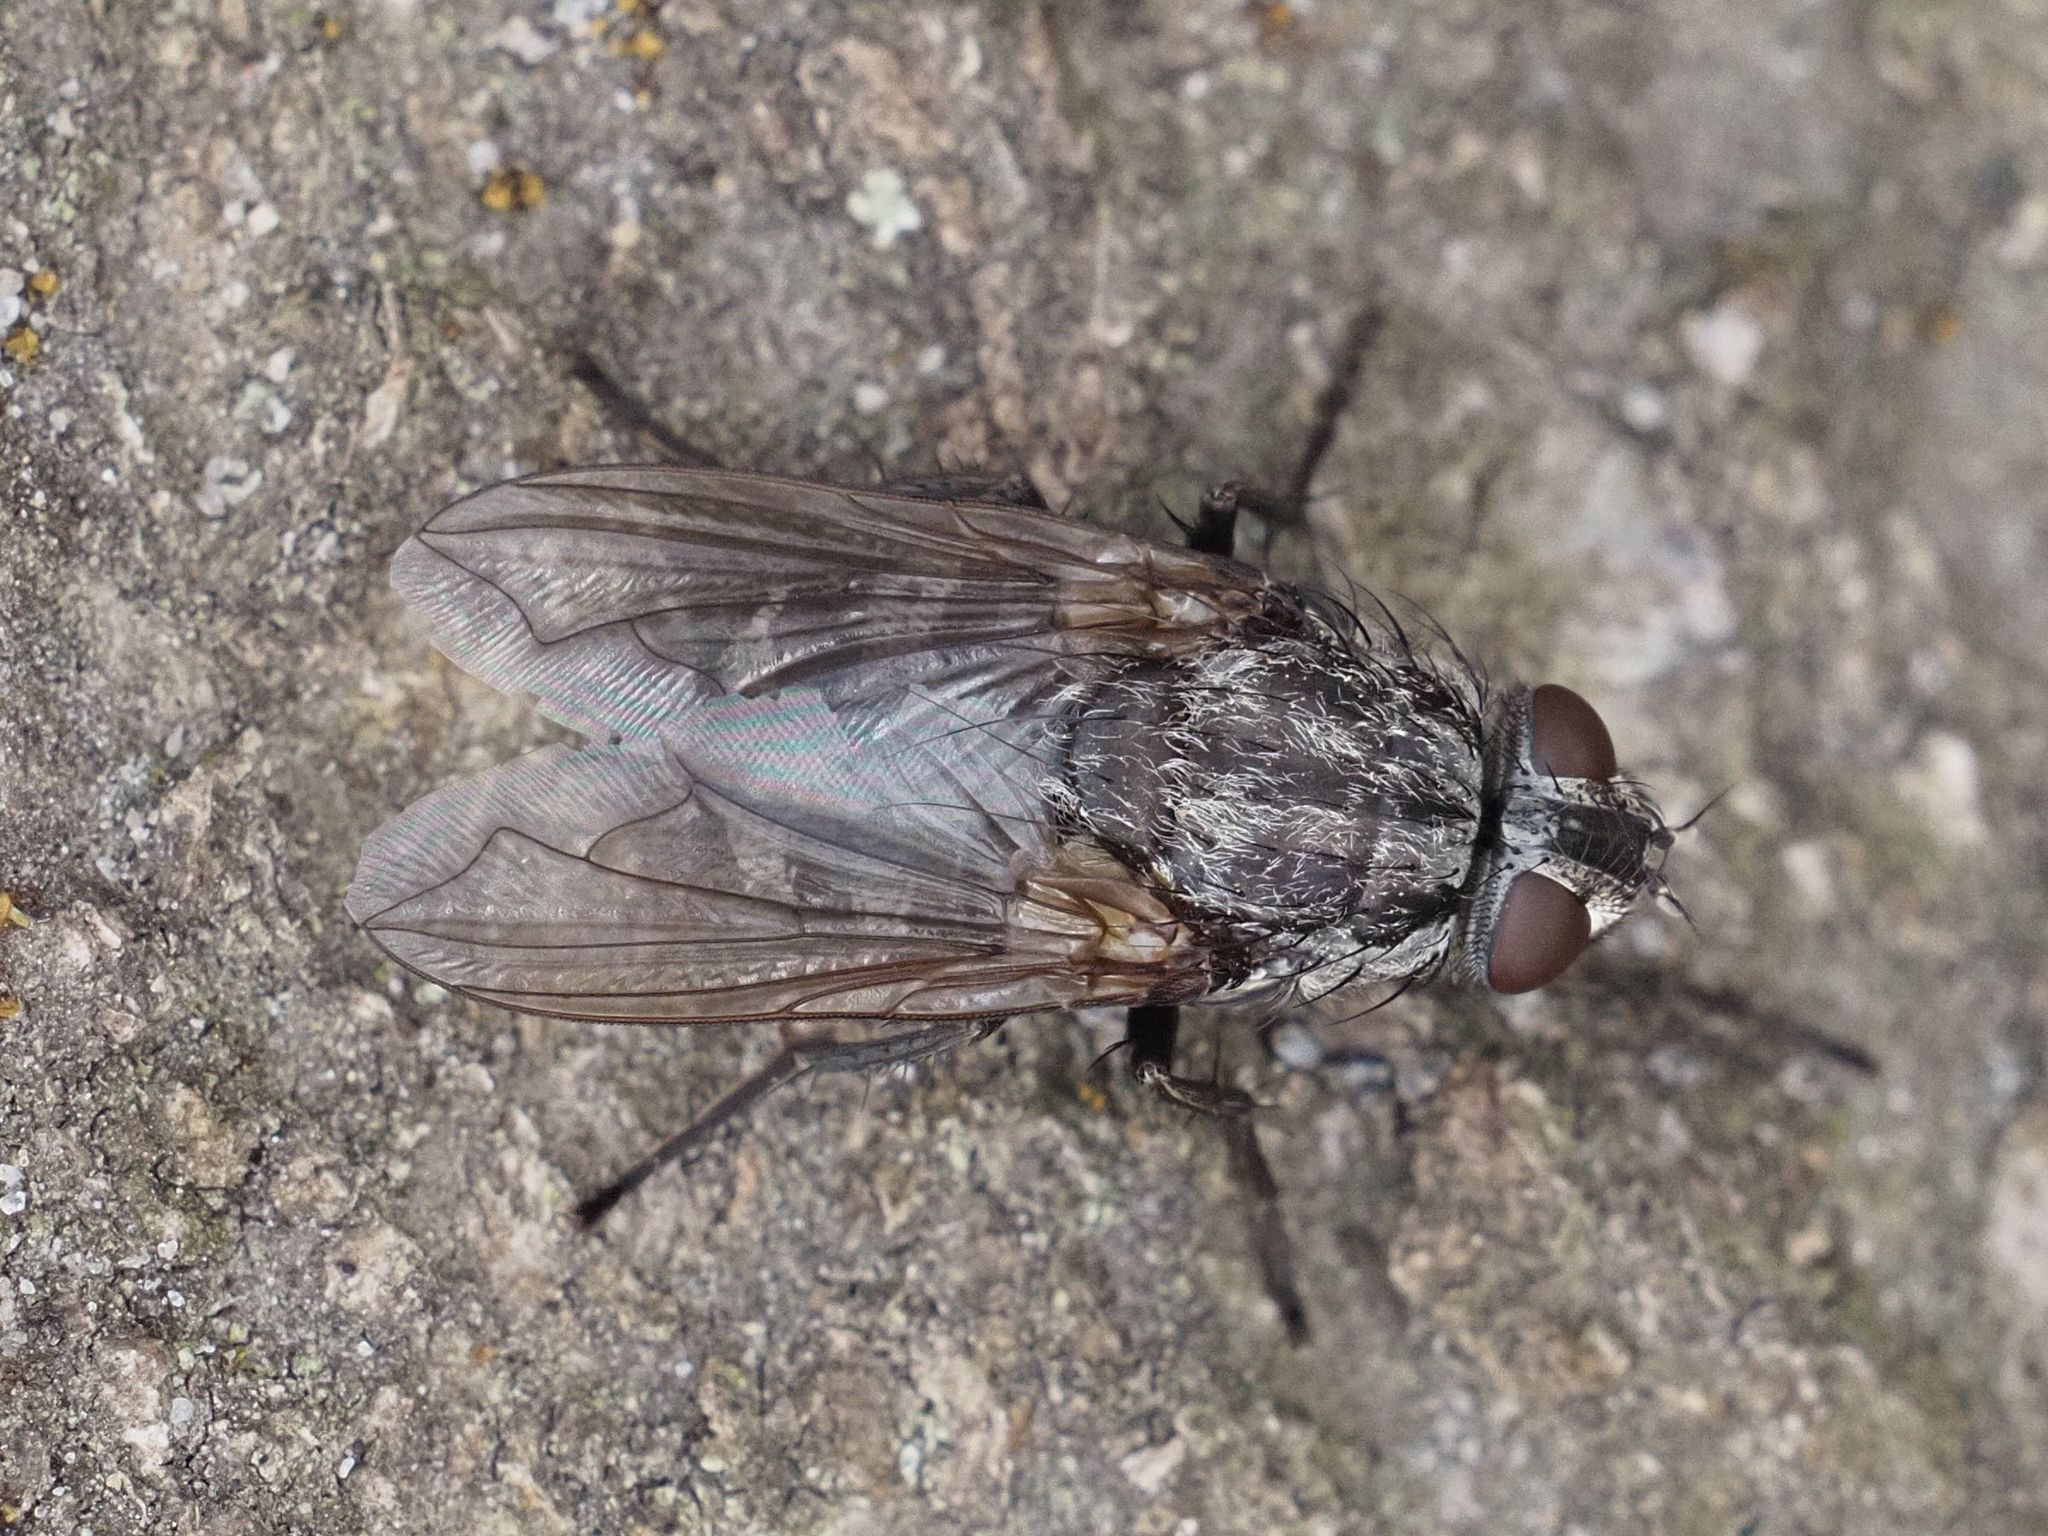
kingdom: Animalia
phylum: Arthropoda
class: Insecta
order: Diptera
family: Polleniidae
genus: Pollenia
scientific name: Pollenia vagabunda
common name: Vagabund cluster fly
